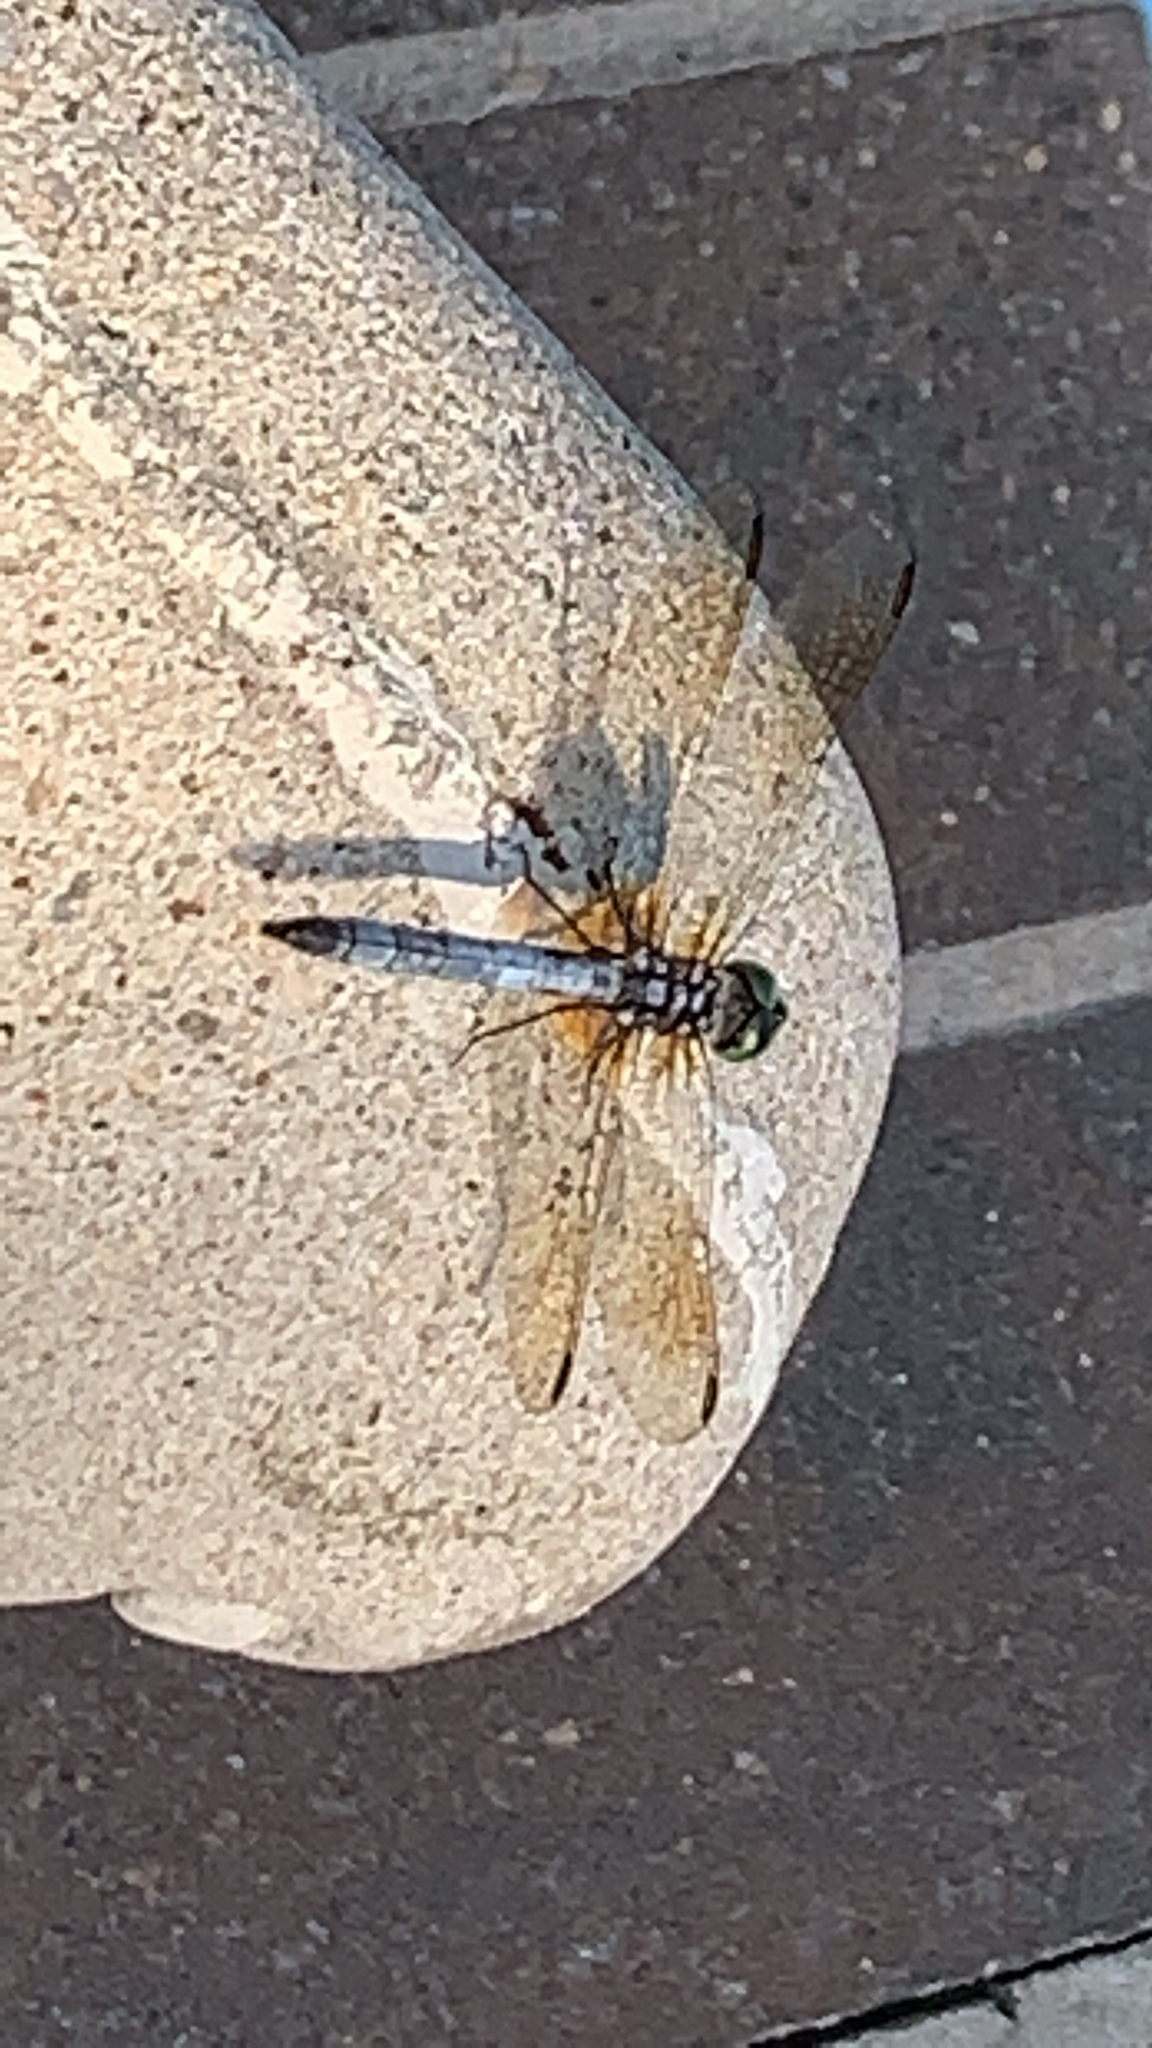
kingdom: Animalia
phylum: Arthropoda
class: Insecta
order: Odonata
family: Libellulidae
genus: Pachydiplax
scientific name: Pachydiplax longipennis
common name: Blue dasher
